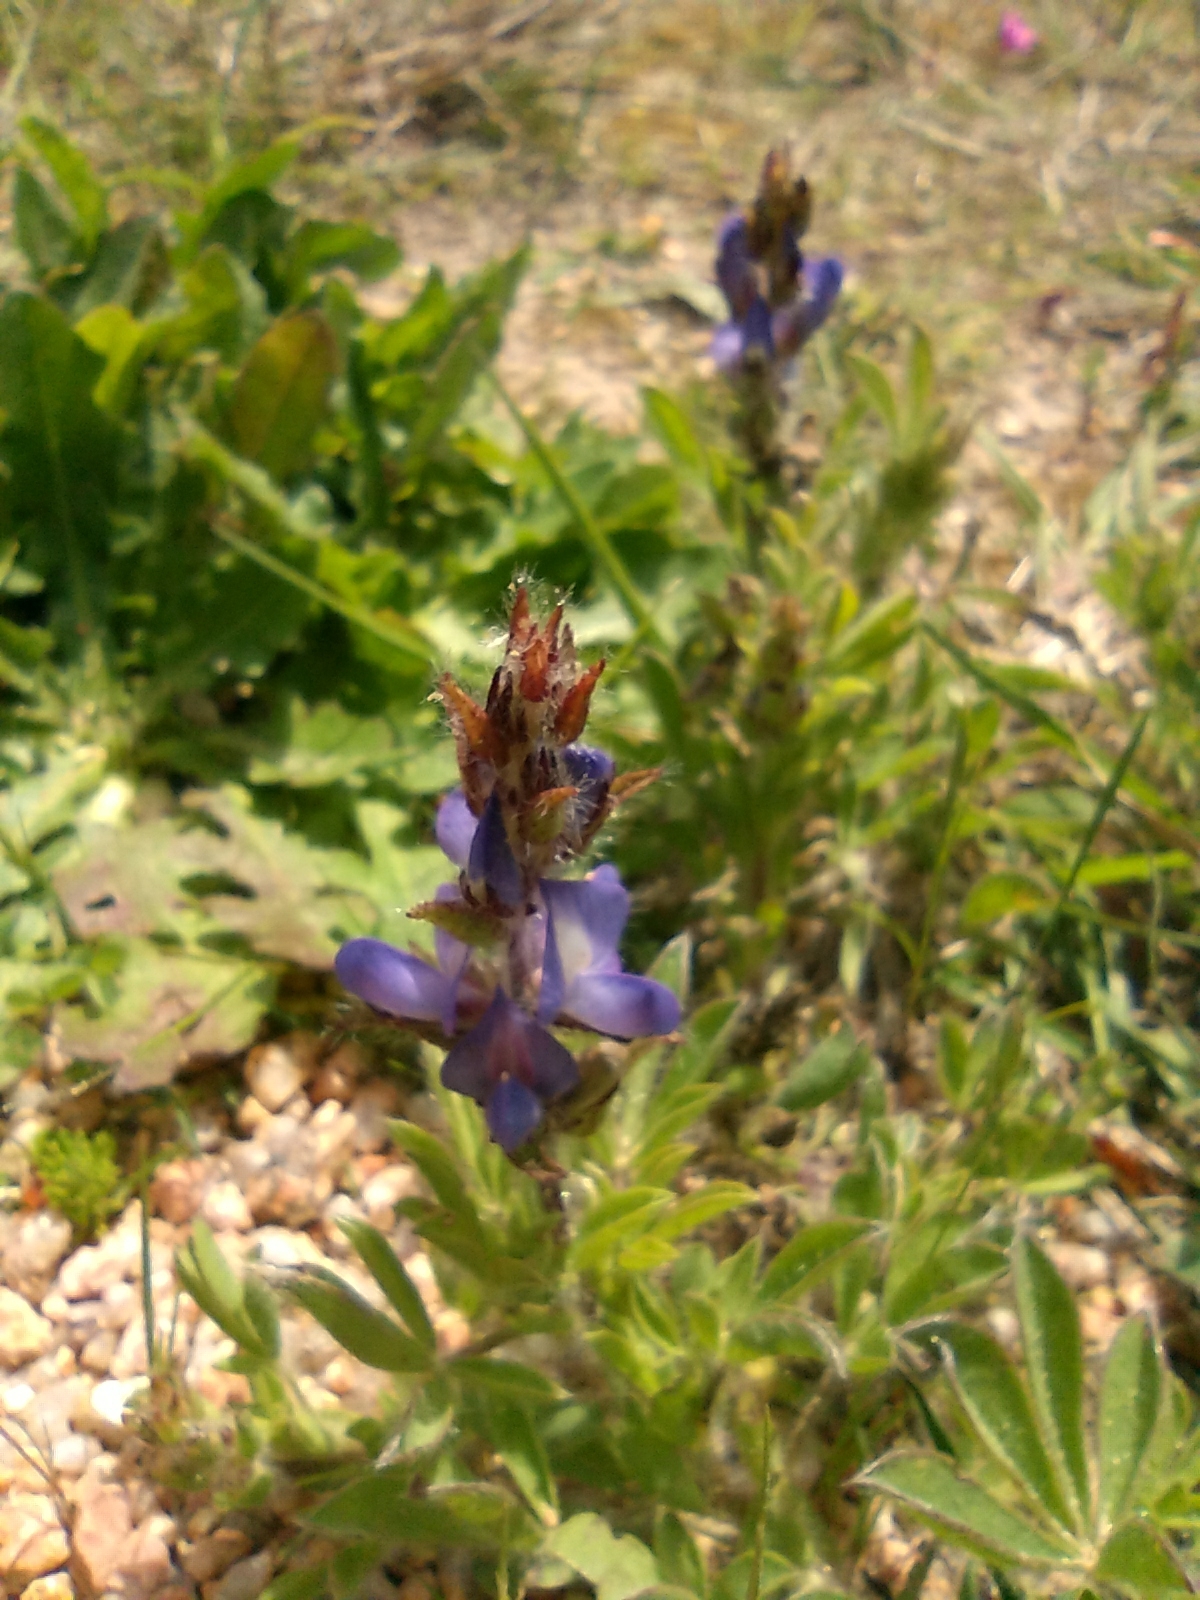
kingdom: Plantae
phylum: Tracheophyta
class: Magnoliopsida
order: Fabales
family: Fabaceae
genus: Lupinus
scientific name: Lupinus bracteolaris
